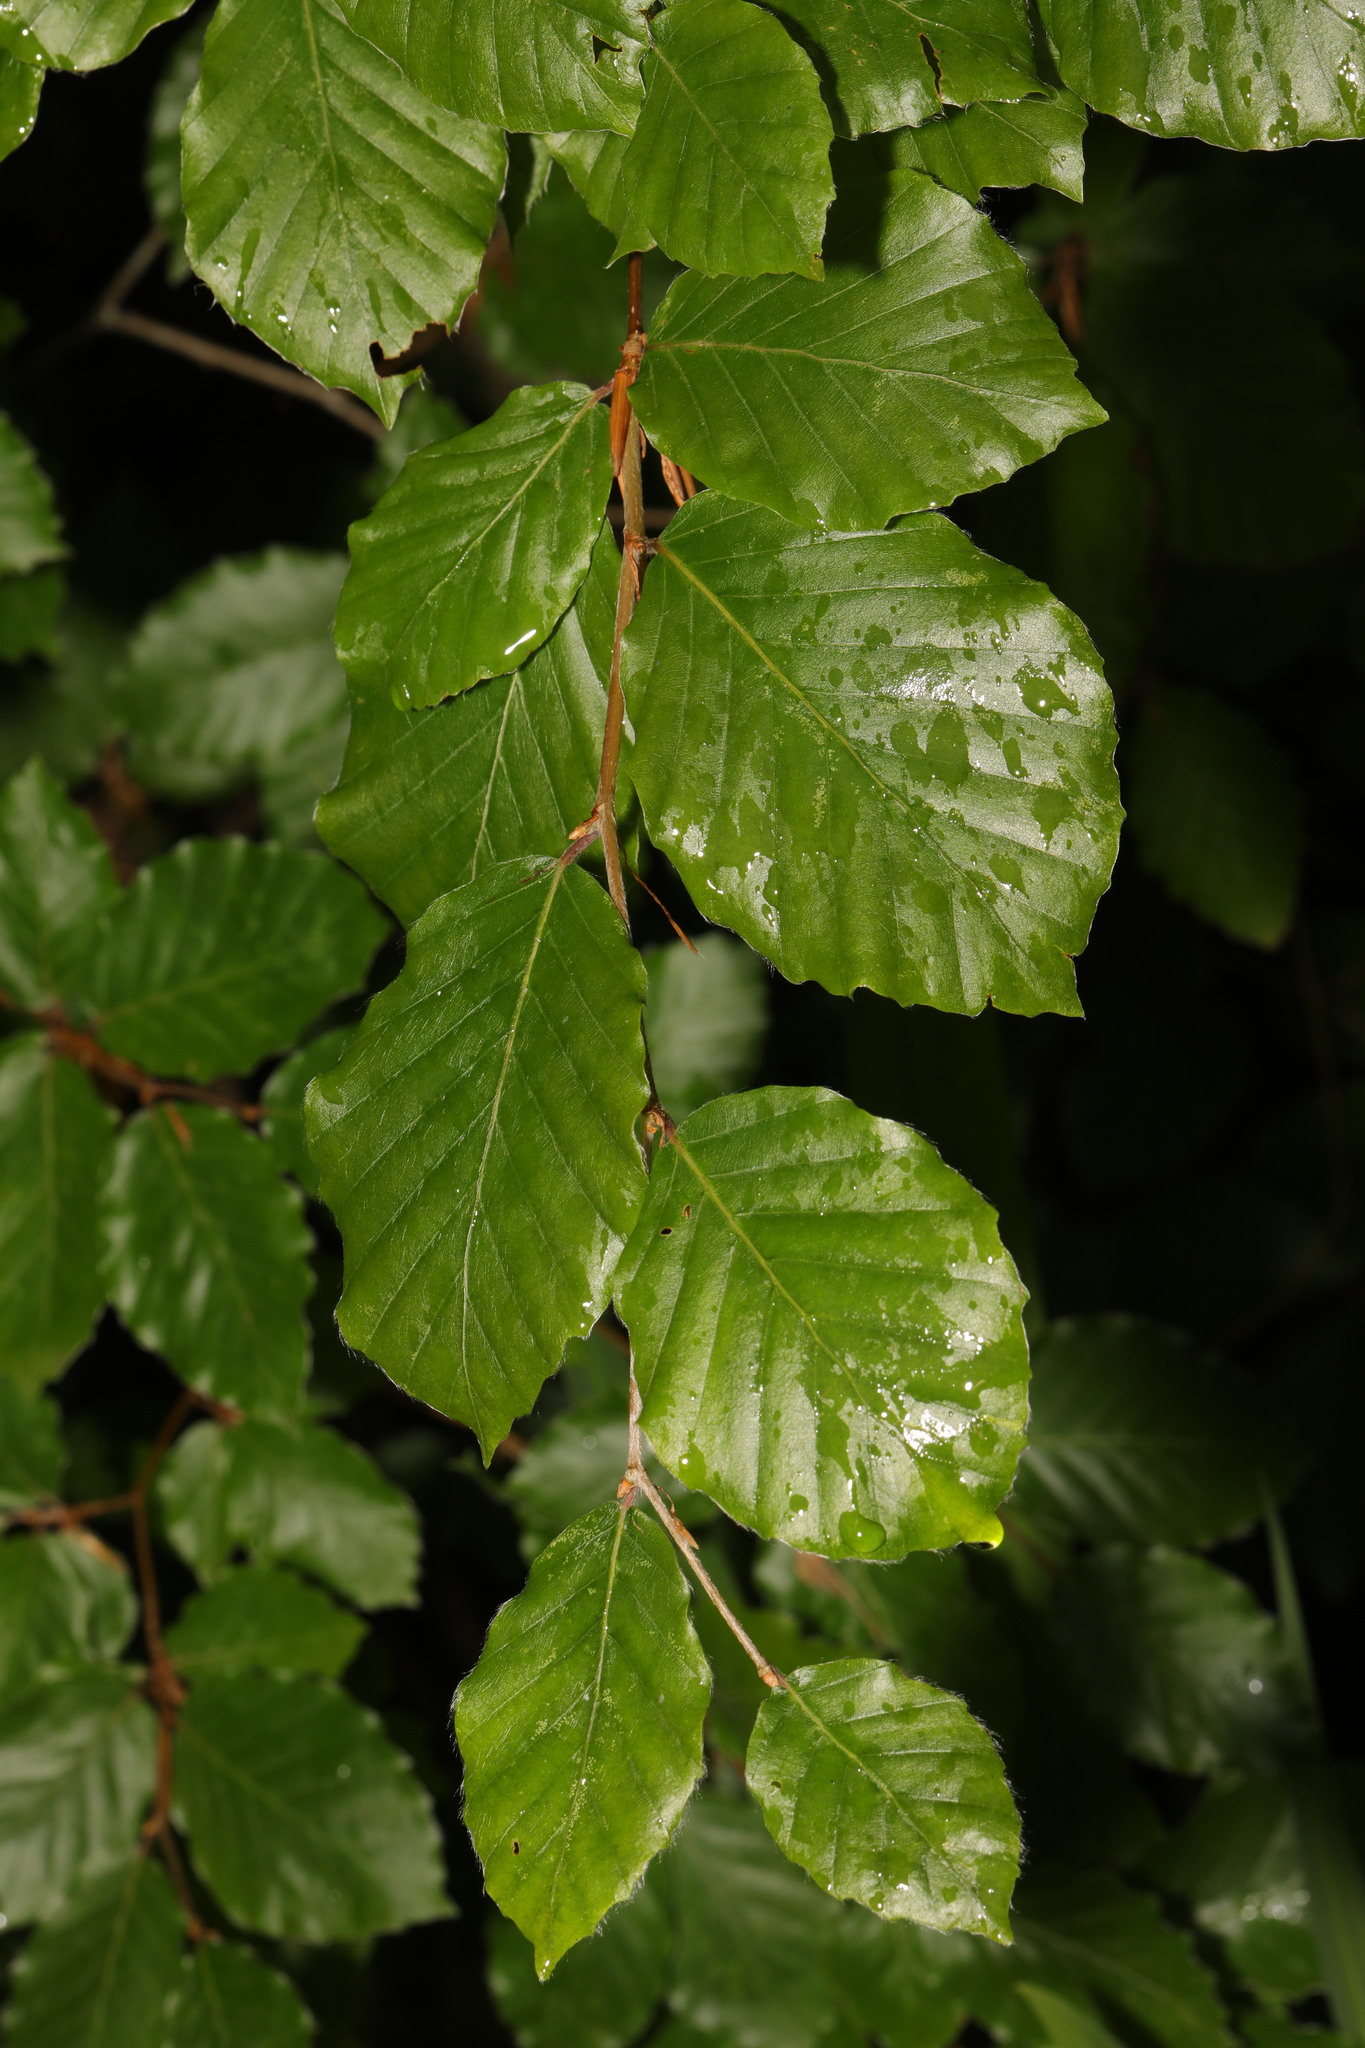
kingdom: Plantae
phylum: Tracheophyta
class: Magnoliopsida
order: Fagales
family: Fagaceae
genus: Fagus
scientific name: Fagus sylvatica
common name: Beech
